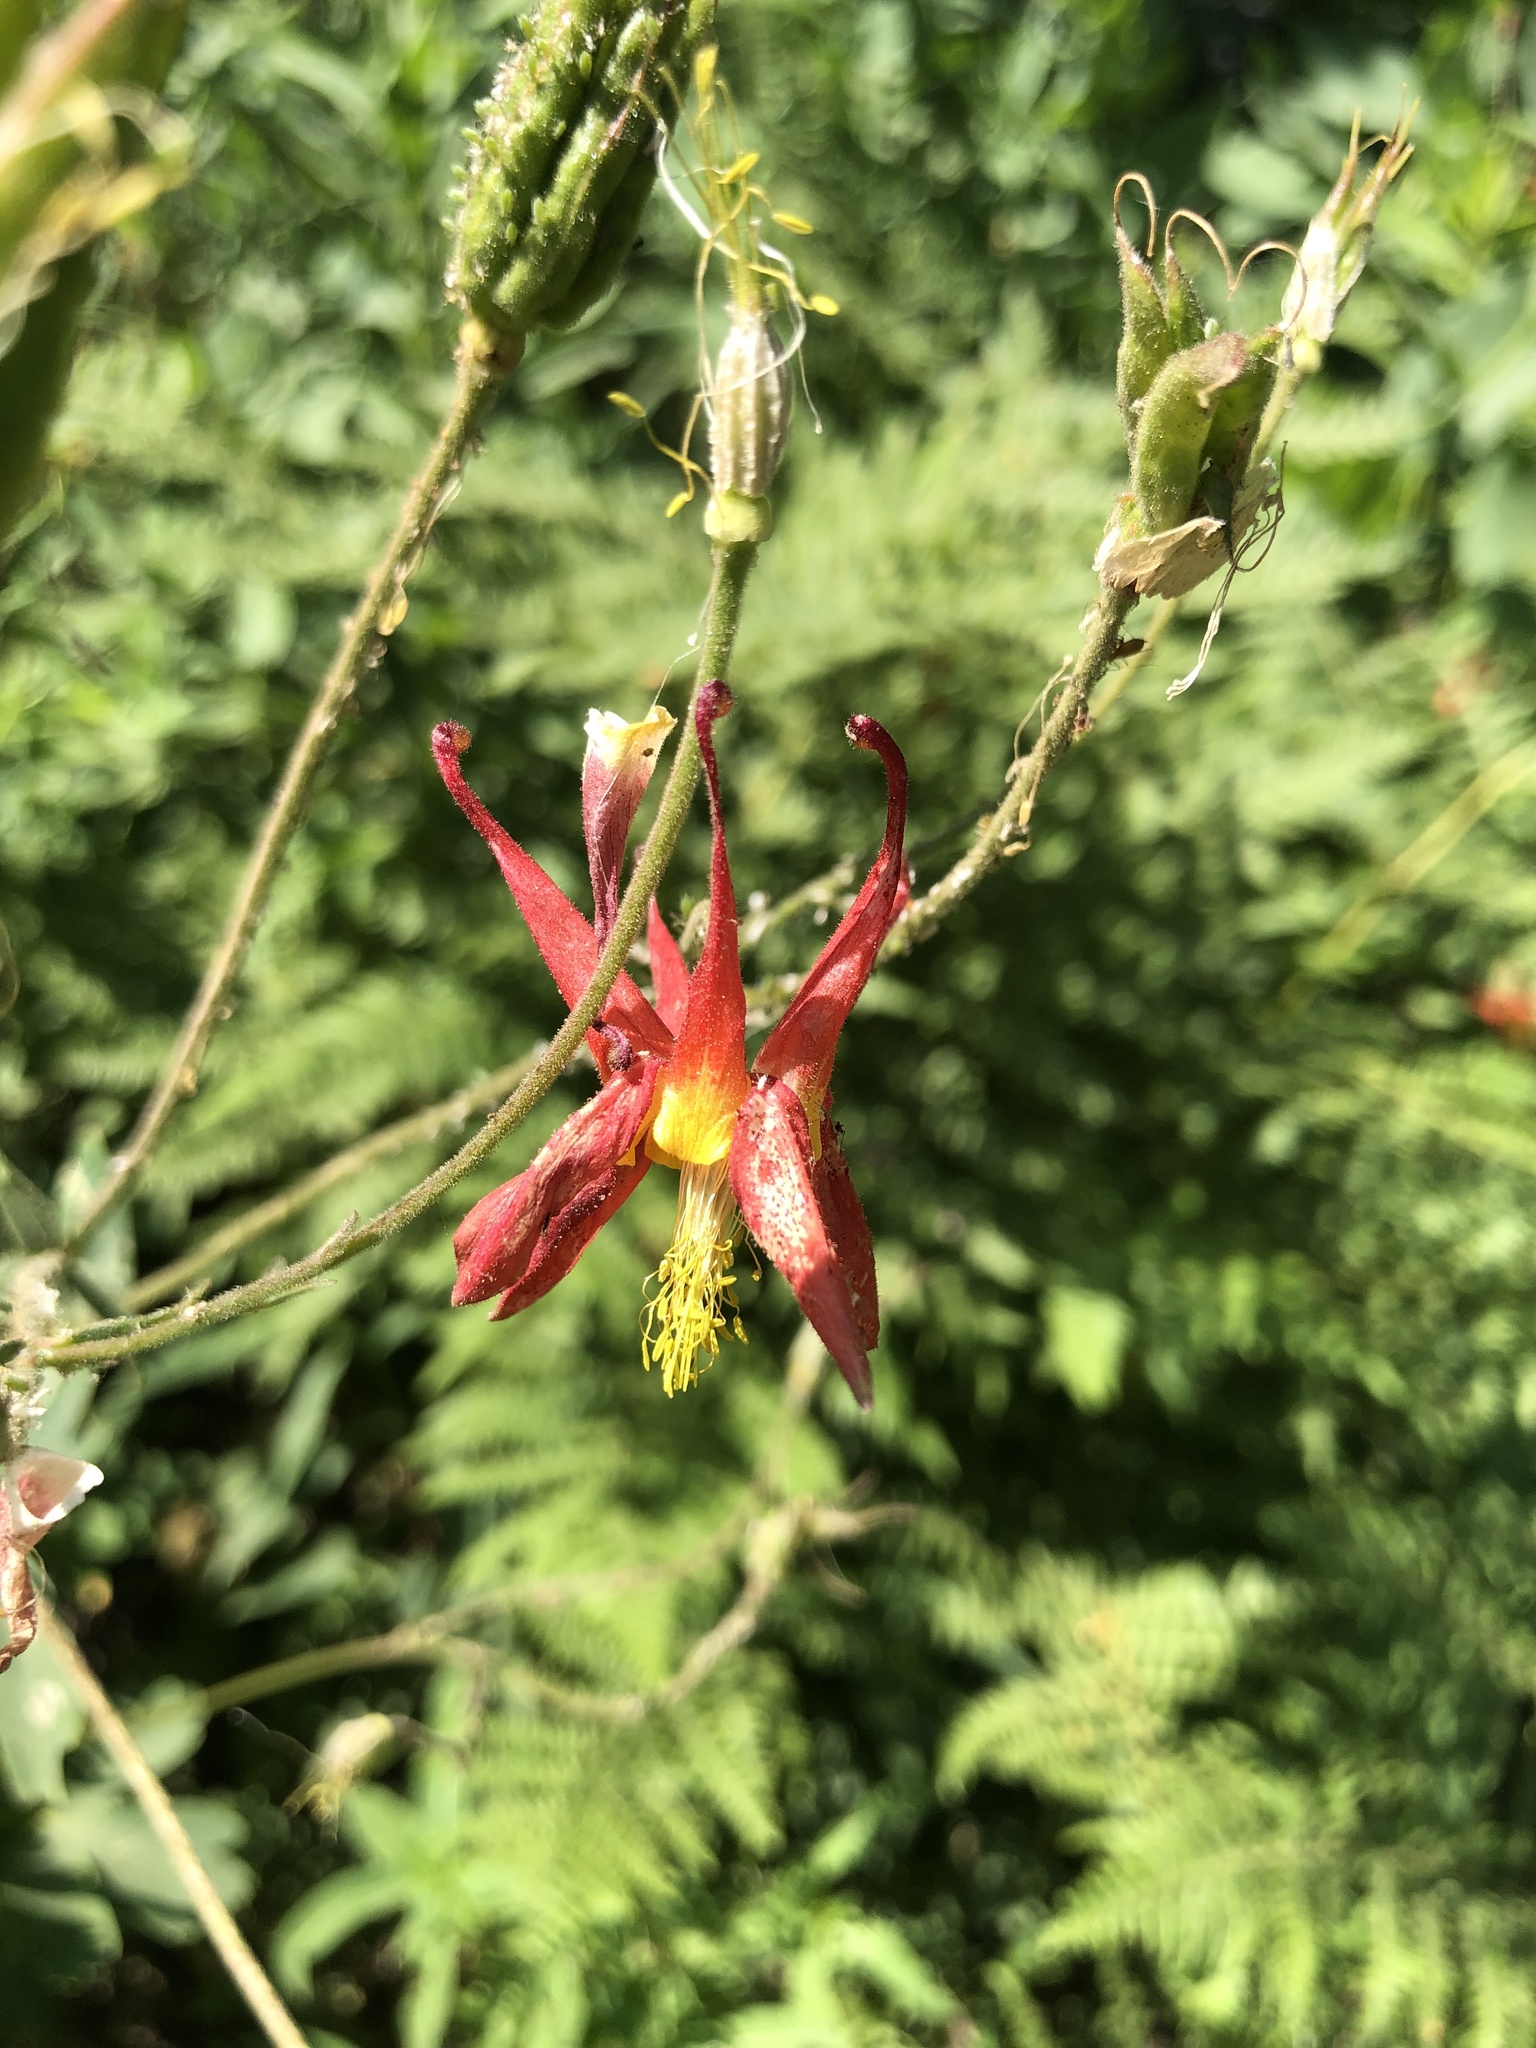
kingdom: Plantae
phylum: Tracheophyta
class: Magnoliopsida
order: Ranunculales
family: Ranunculaceae
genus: Aquilegia
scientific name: Aquilegia formosa
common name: Sitka columbine
